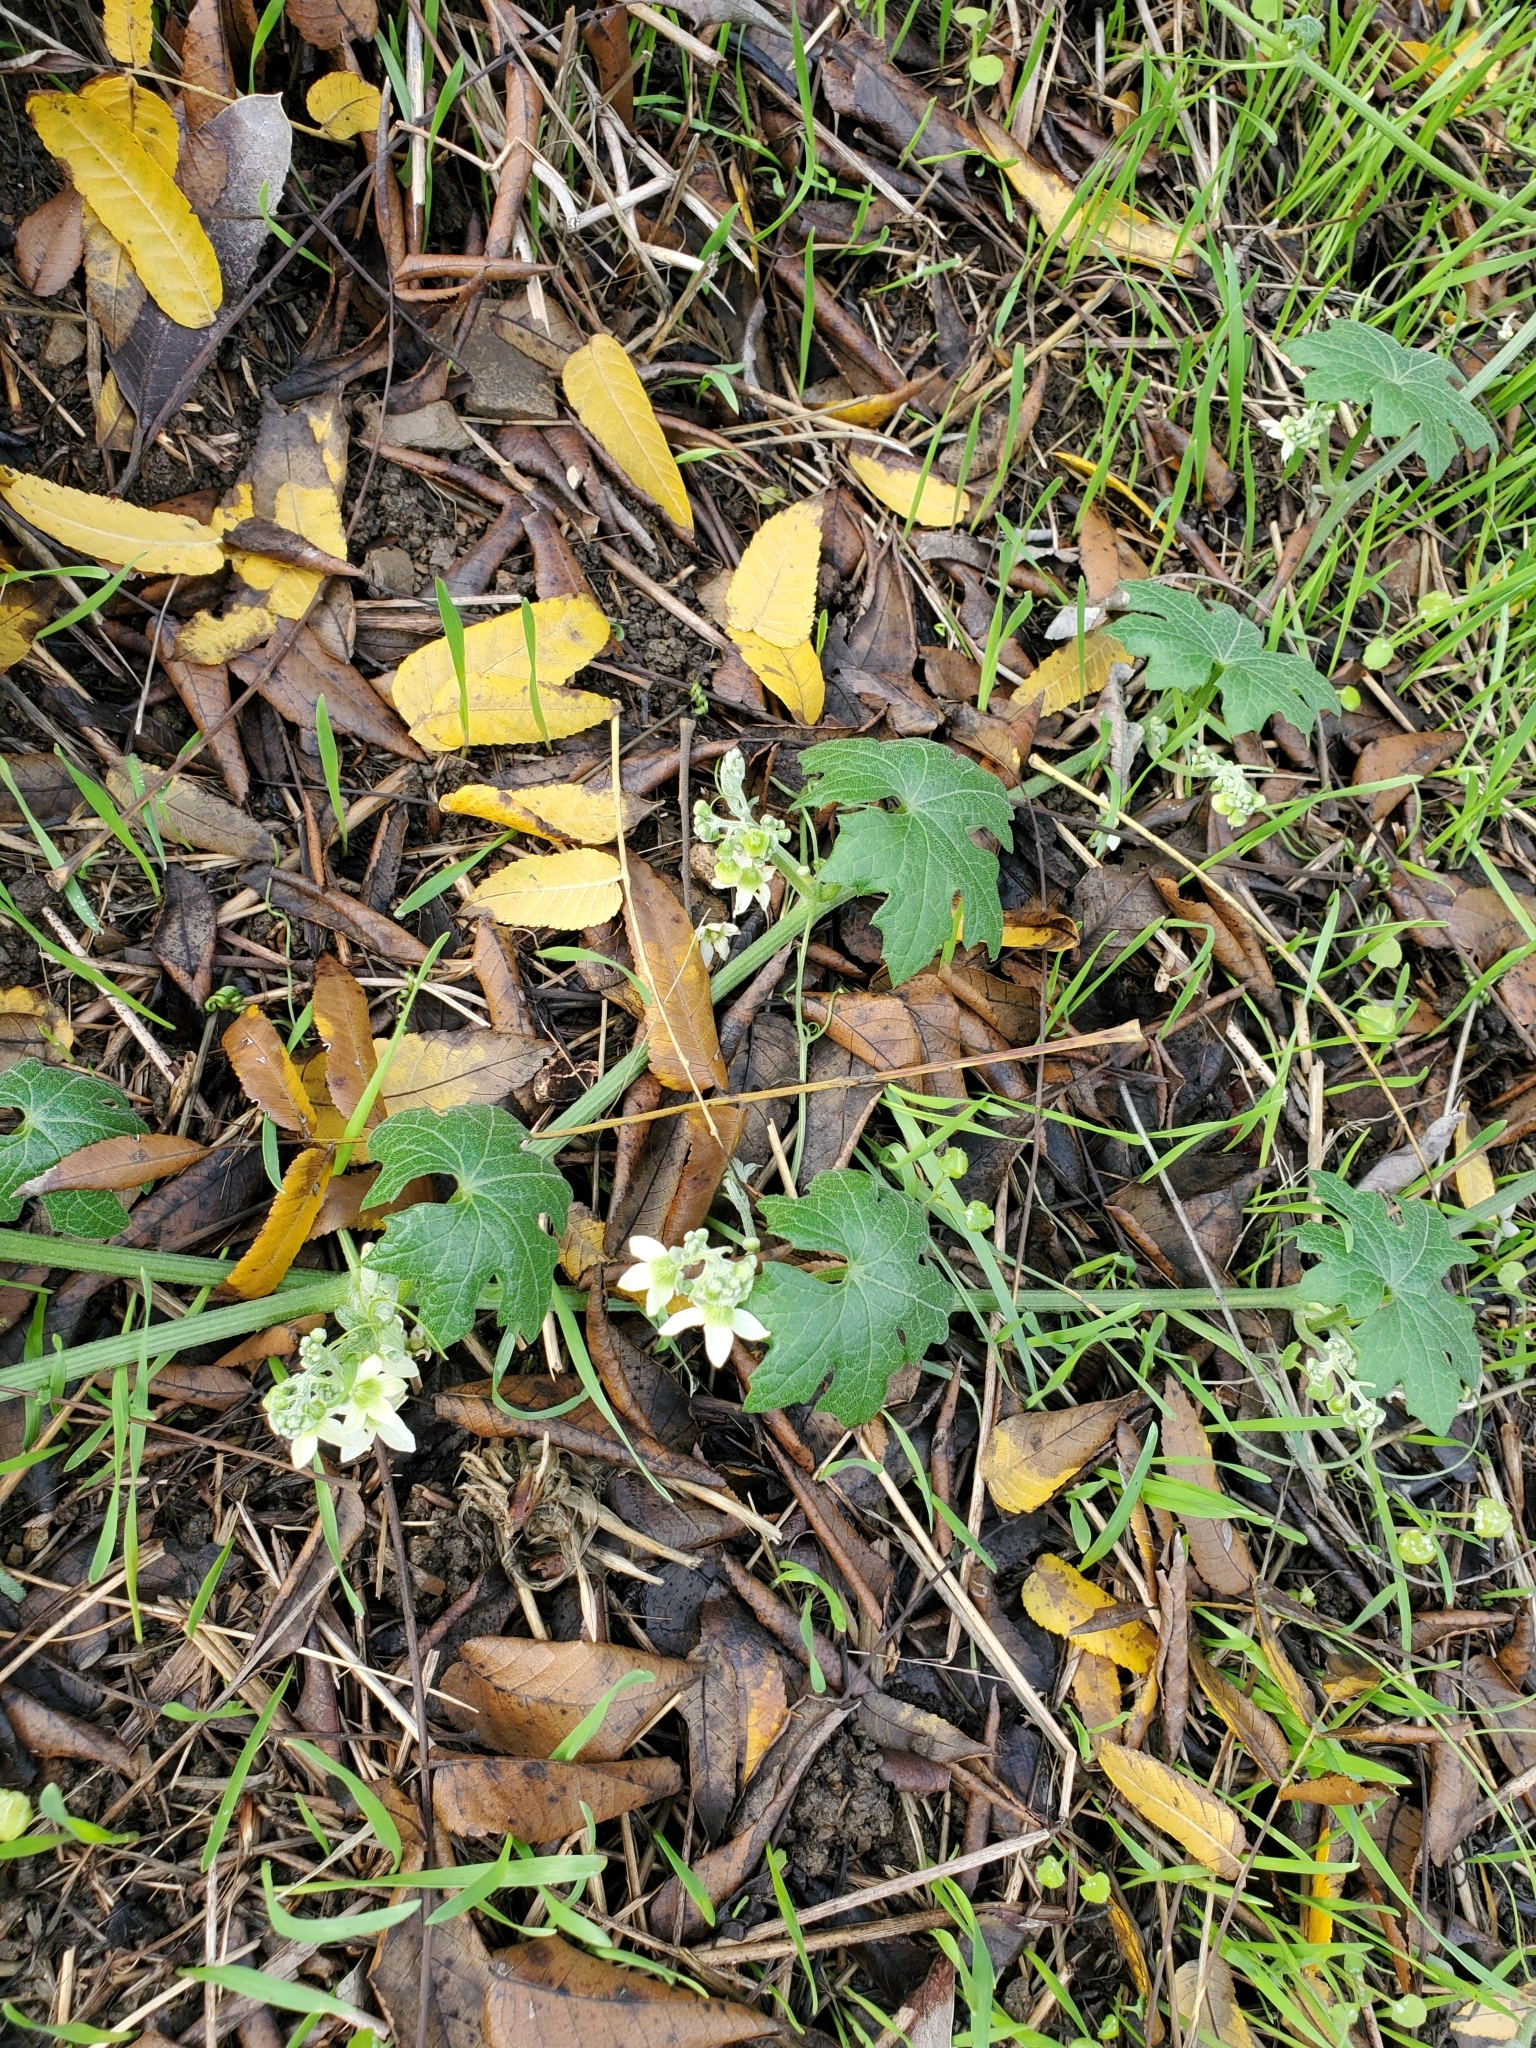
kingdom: Plantae
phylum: Tracheophyta
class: Magnoliopsida
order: Cucurbitales
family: Cucurbitaceae
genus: Marah
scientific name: Marah macrocarpa
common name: Cucamonga manroot
